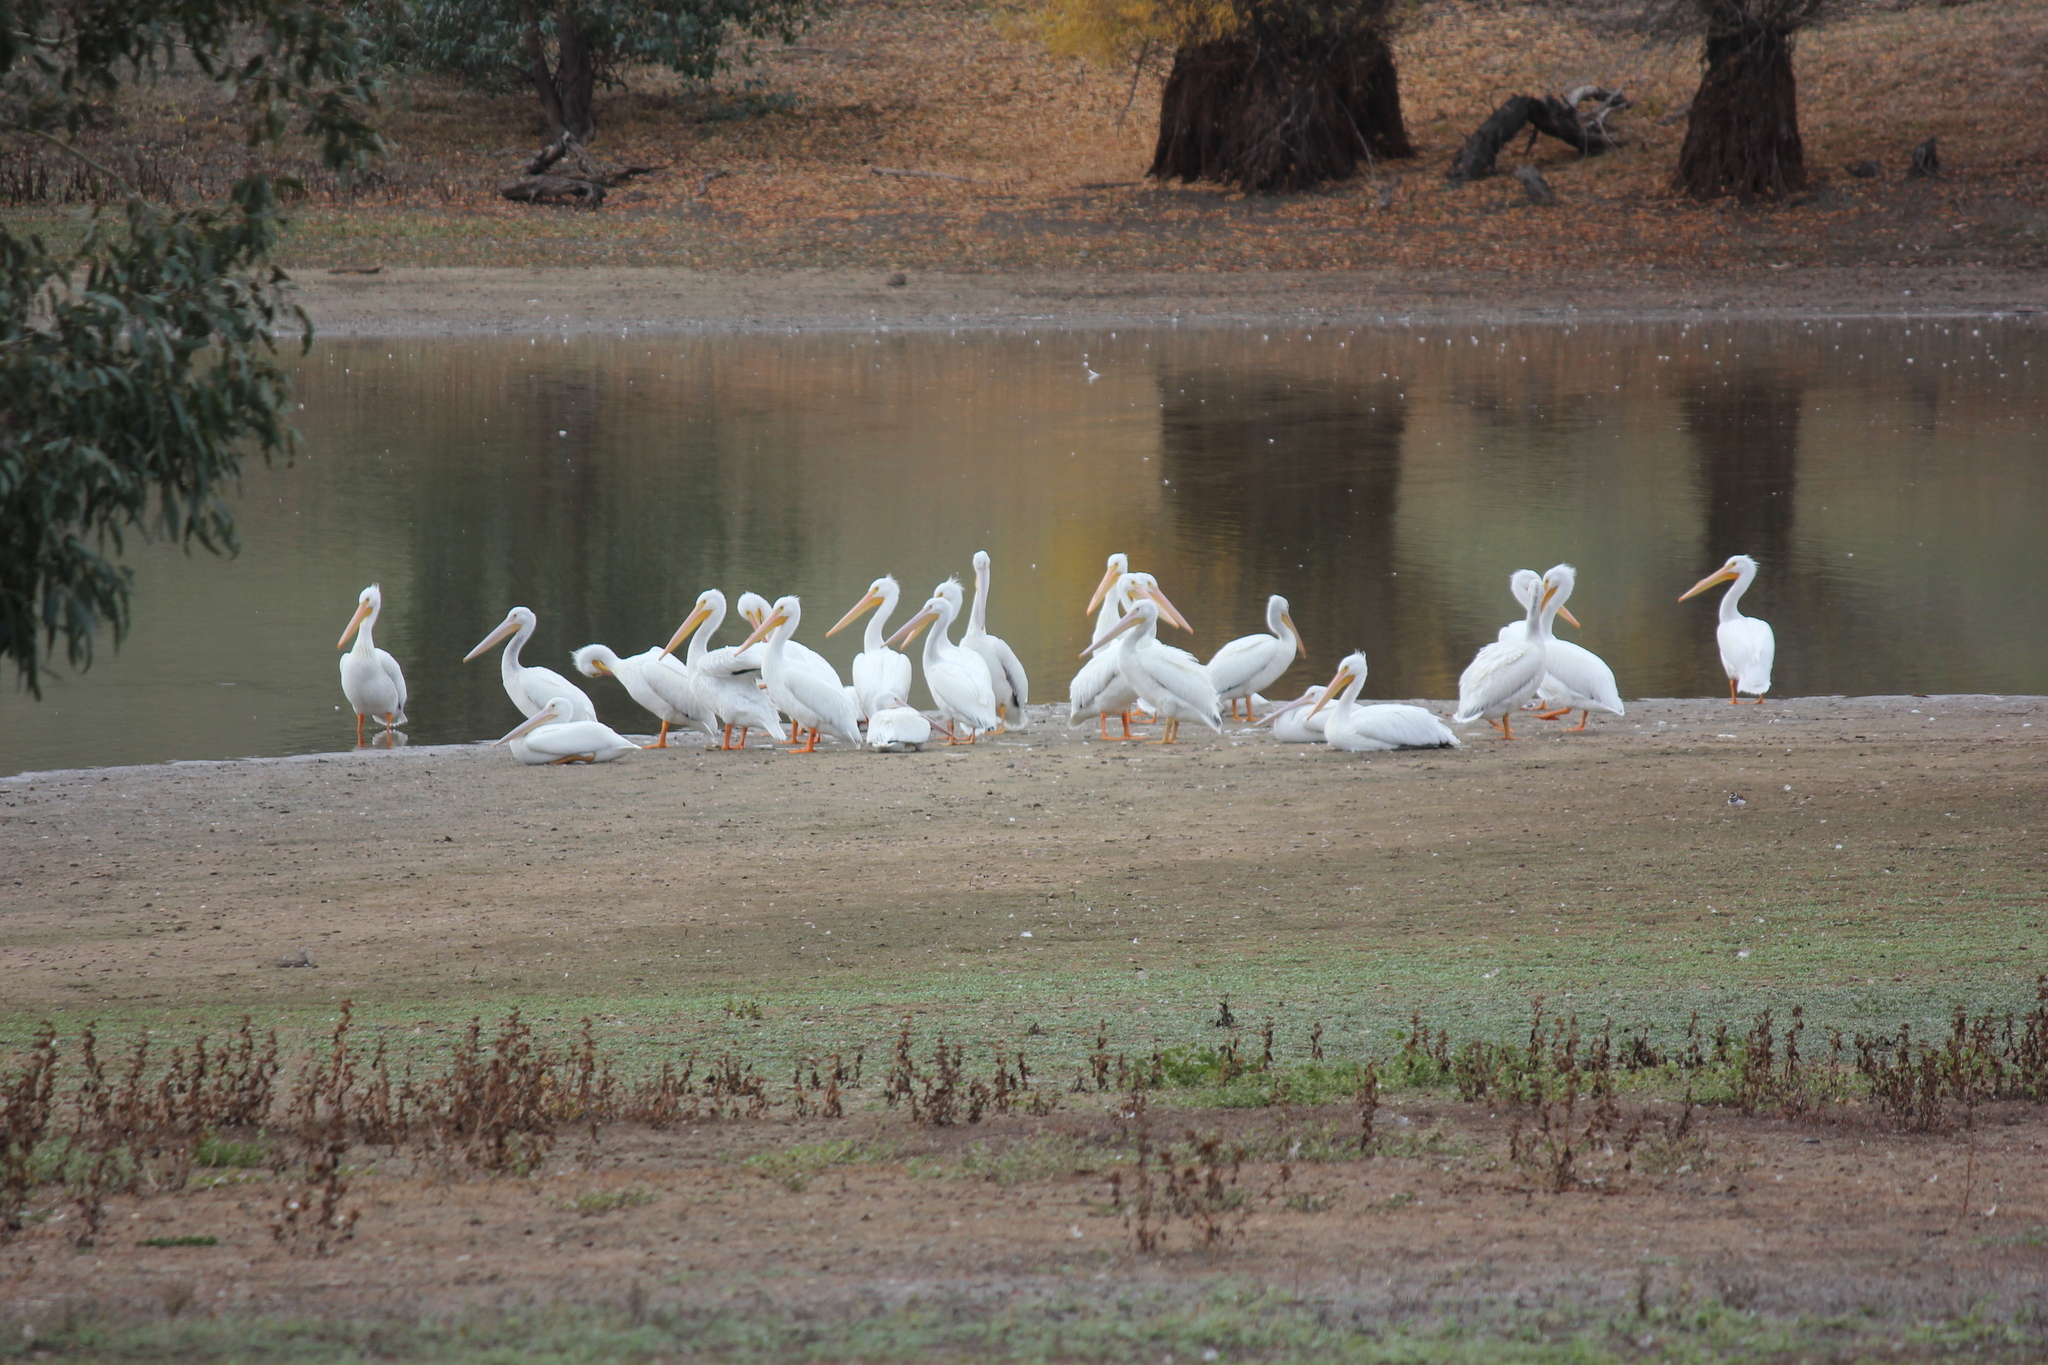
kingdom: Animalia
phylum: Chordata
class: Aves
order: Pelecaniformes
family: Pelecanidae
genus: Pelecanus
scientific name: Pelecanus erythrorhynchos
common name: American white pelican
